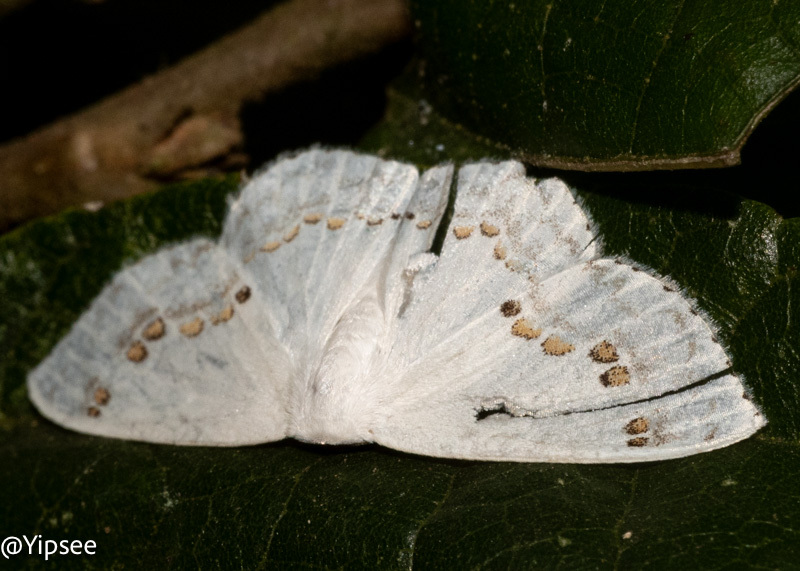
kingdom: Animalia
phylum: Arthropoda
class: Insecta
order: Lepidoptera
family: Drepanidae
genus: Teldenia
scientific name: Teldenia specca
